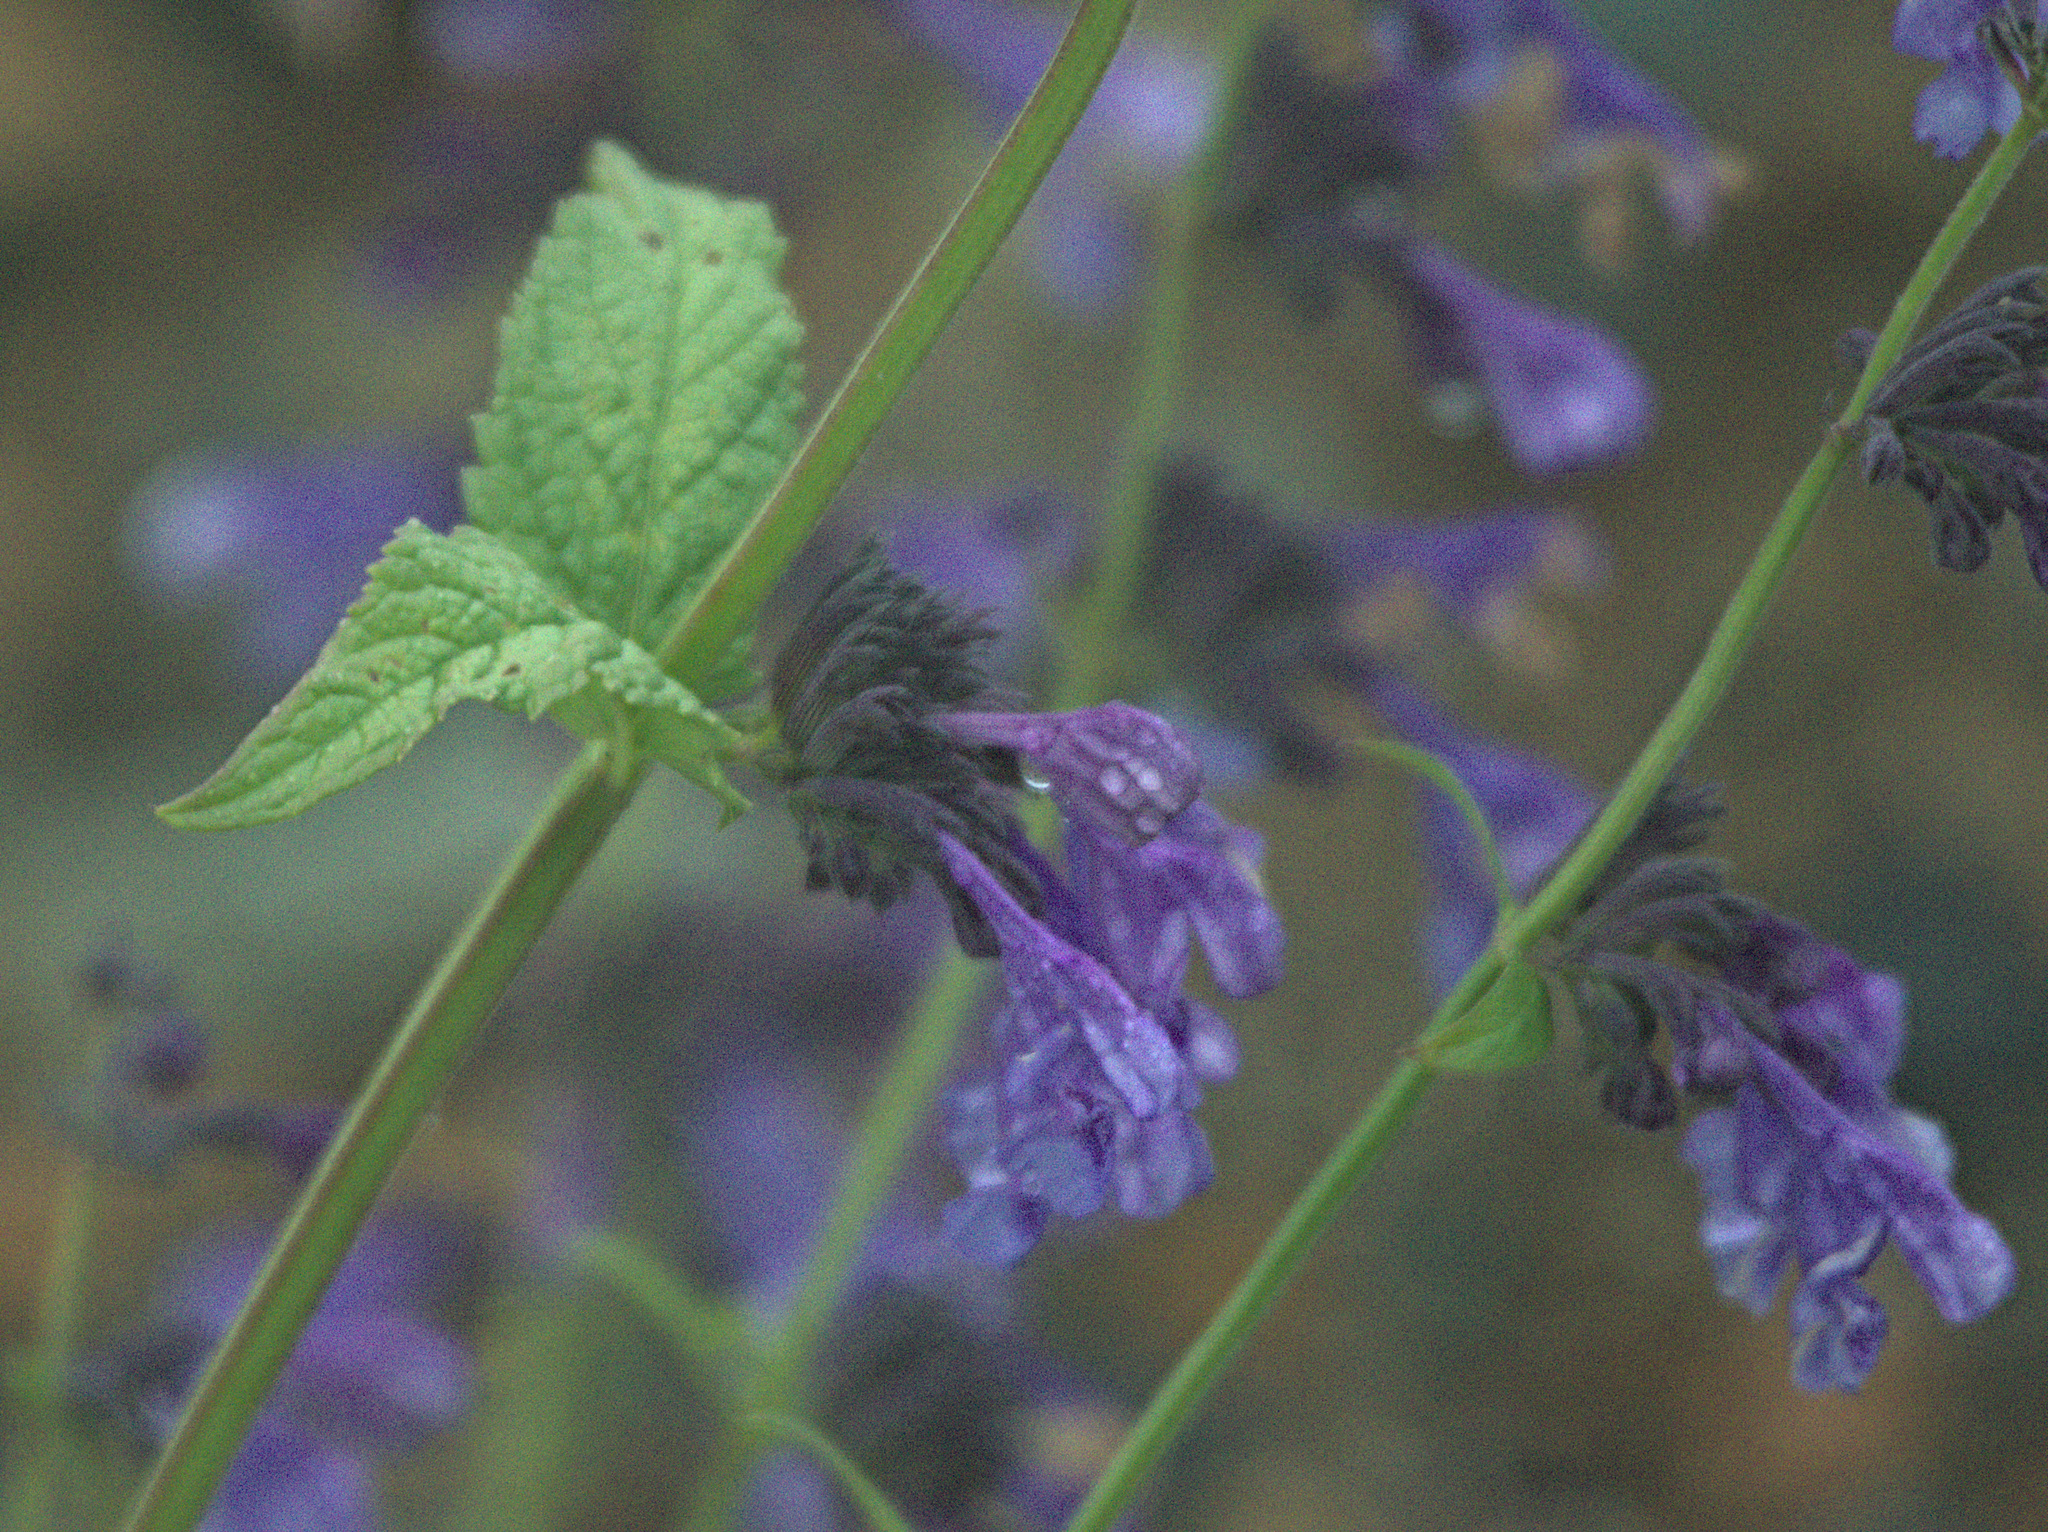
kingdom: Plantae
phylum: Tracheophyta
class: Magnoliopsida
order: Lamiales
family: Lamiaceae
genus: Nepeta
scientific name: Nepeta sibirica
